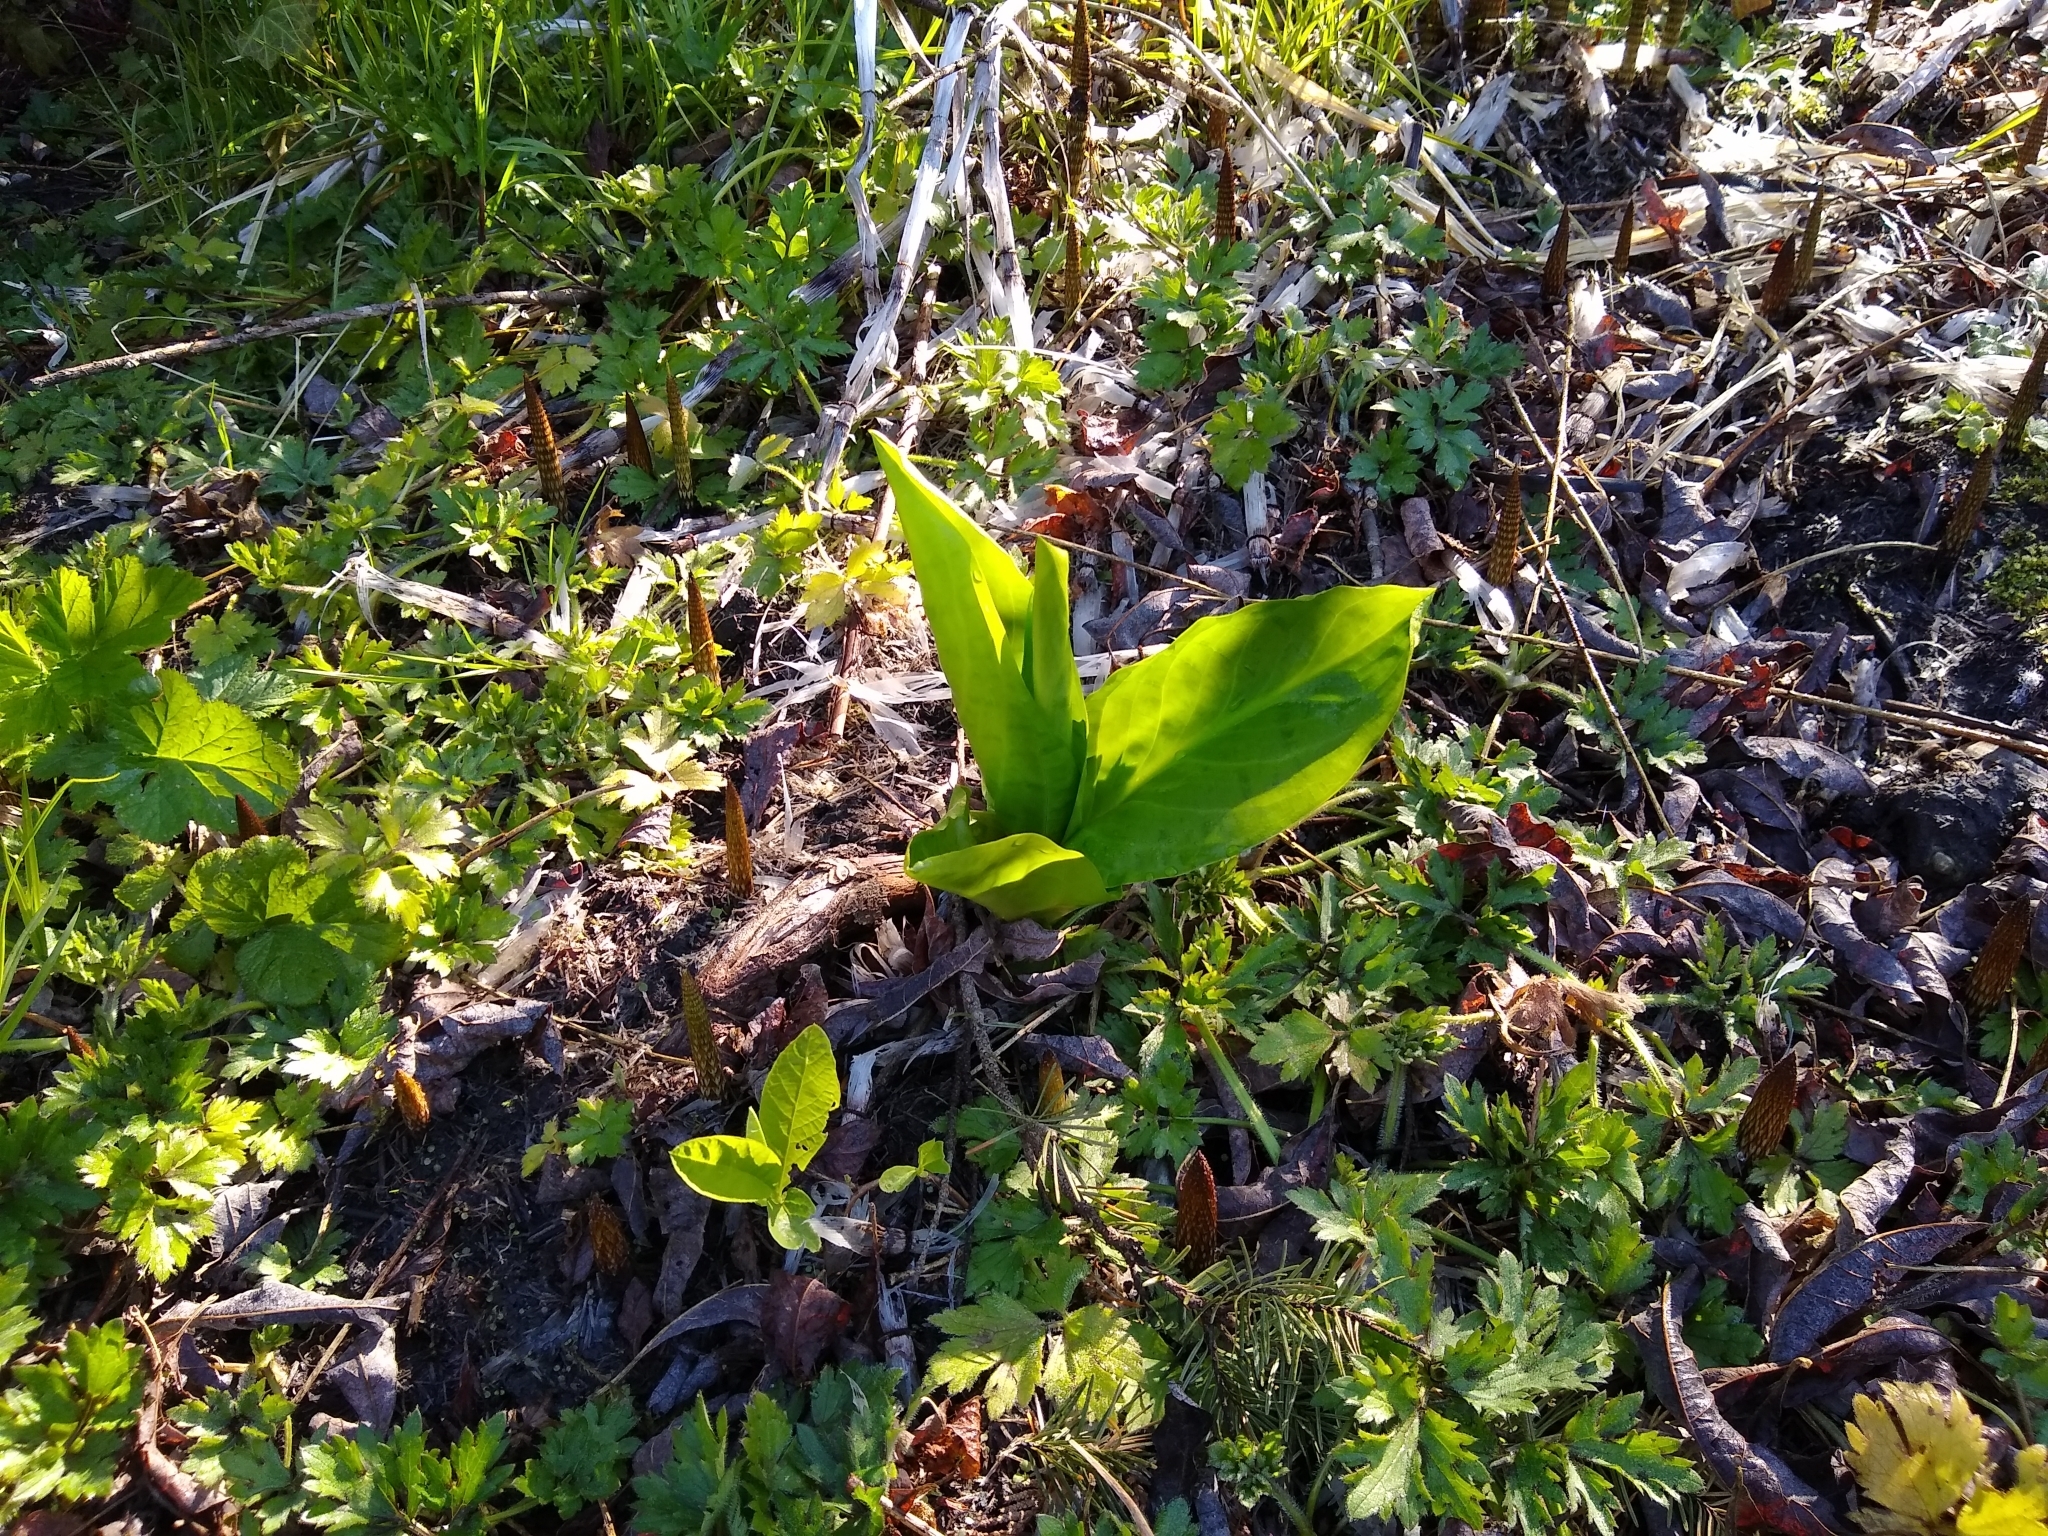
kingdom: Plantae
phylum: Tracheophyta
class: Liliopsida
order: Alismatales
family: Araceae
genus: Lysichiton
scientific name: Lysichiton americanus
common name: American skunk cabbage
